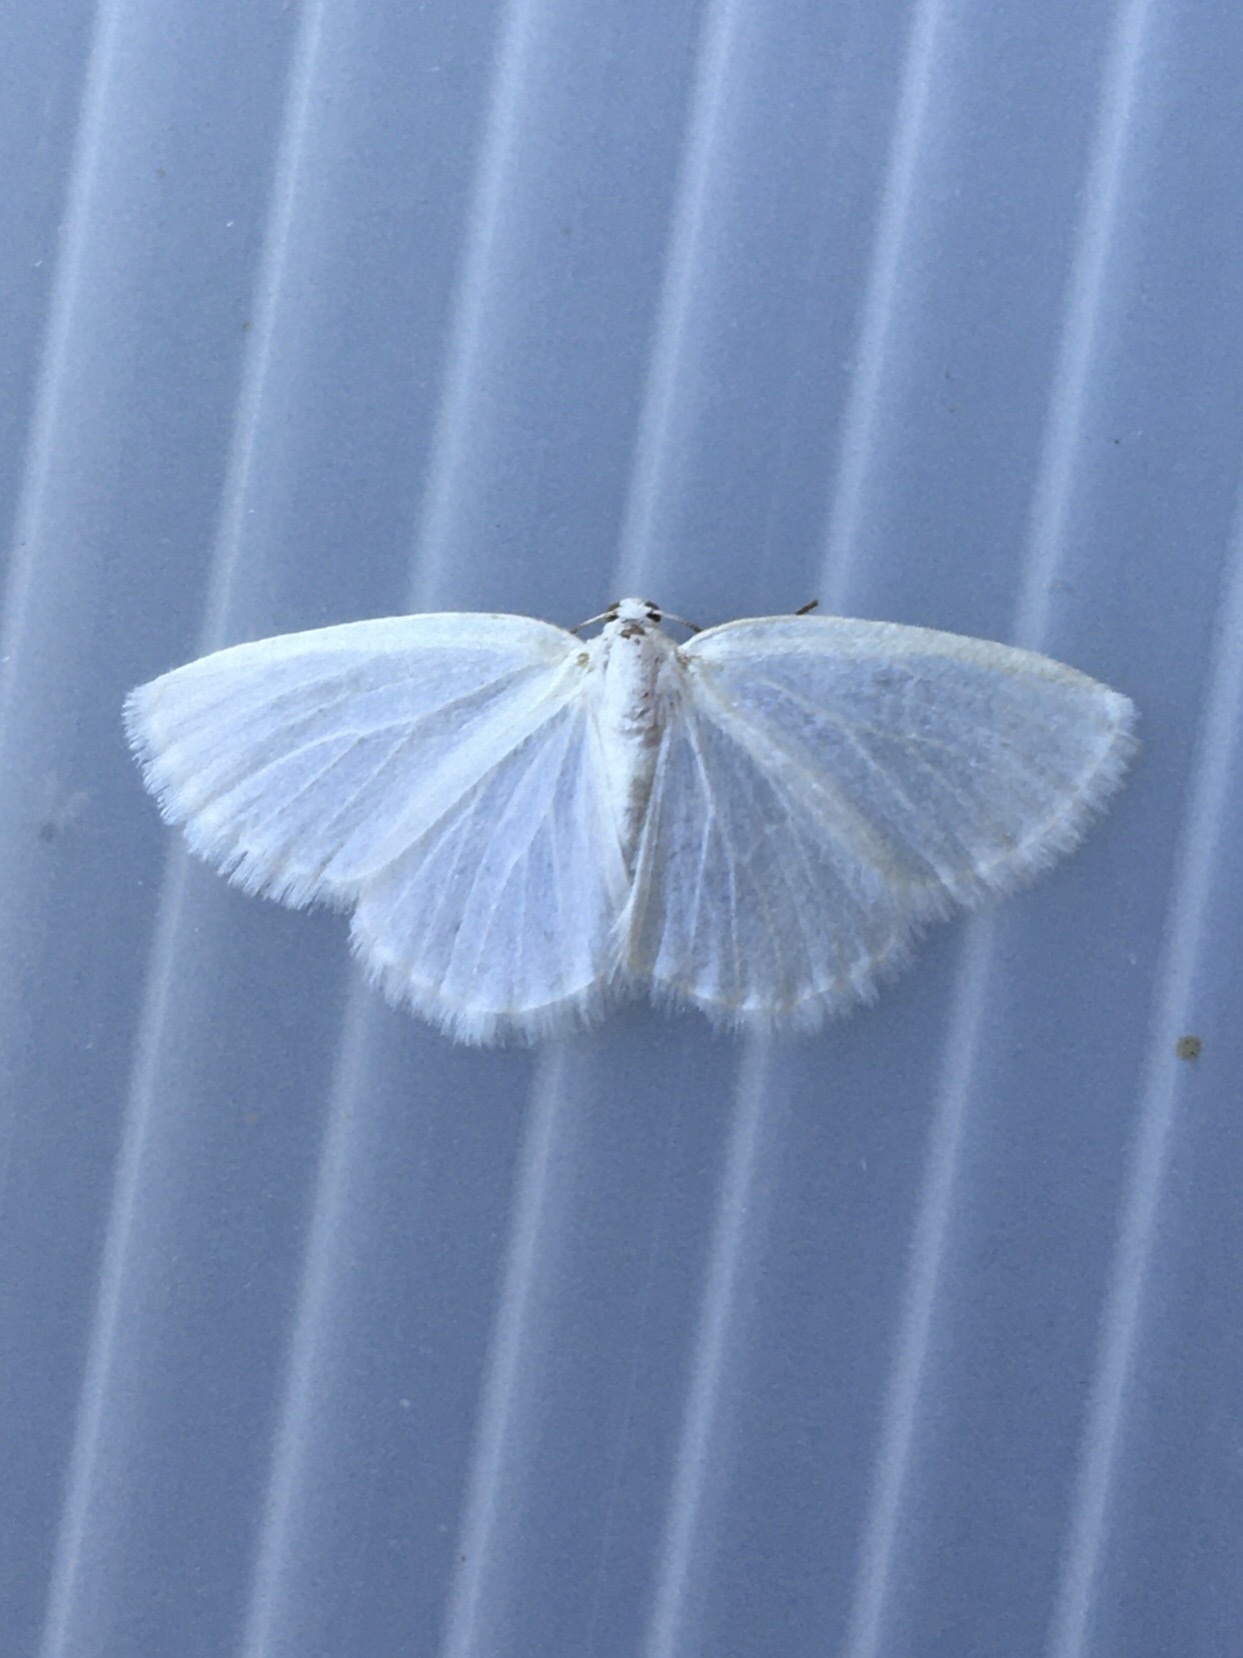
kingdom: Animalia
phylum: Arthropoda
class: Insecta
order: Lepidoptera
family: Geometridae
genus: Lomographa
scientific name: Lomographa vestaliata
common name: White spring moth
